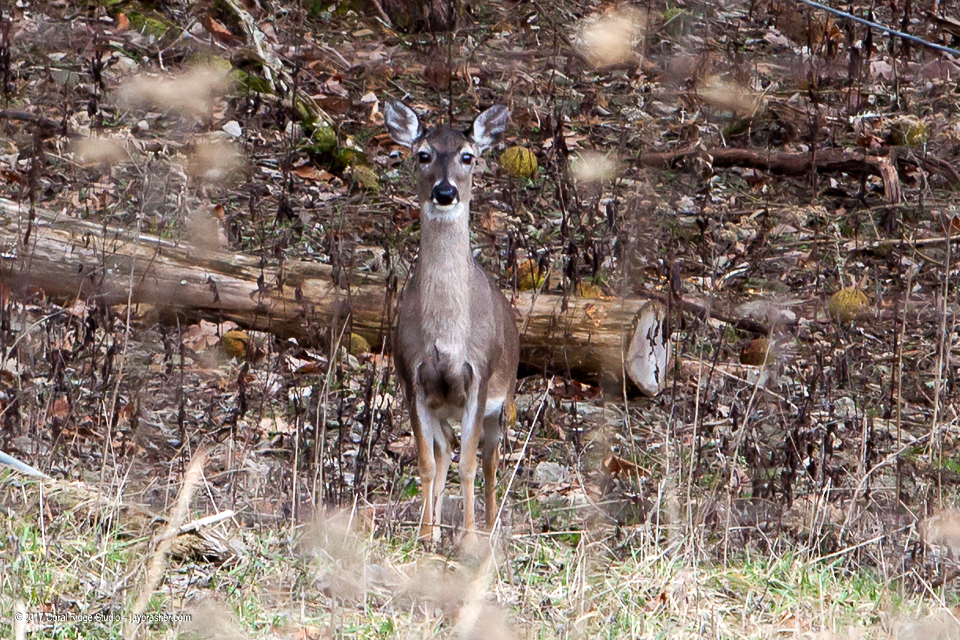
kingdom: Animalia
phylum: Chordata
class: Mammalia
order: Artiodactyla
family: Cervidae
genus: Odocoileus
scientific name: Odocoileus virginianus
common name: White-tailed deer
